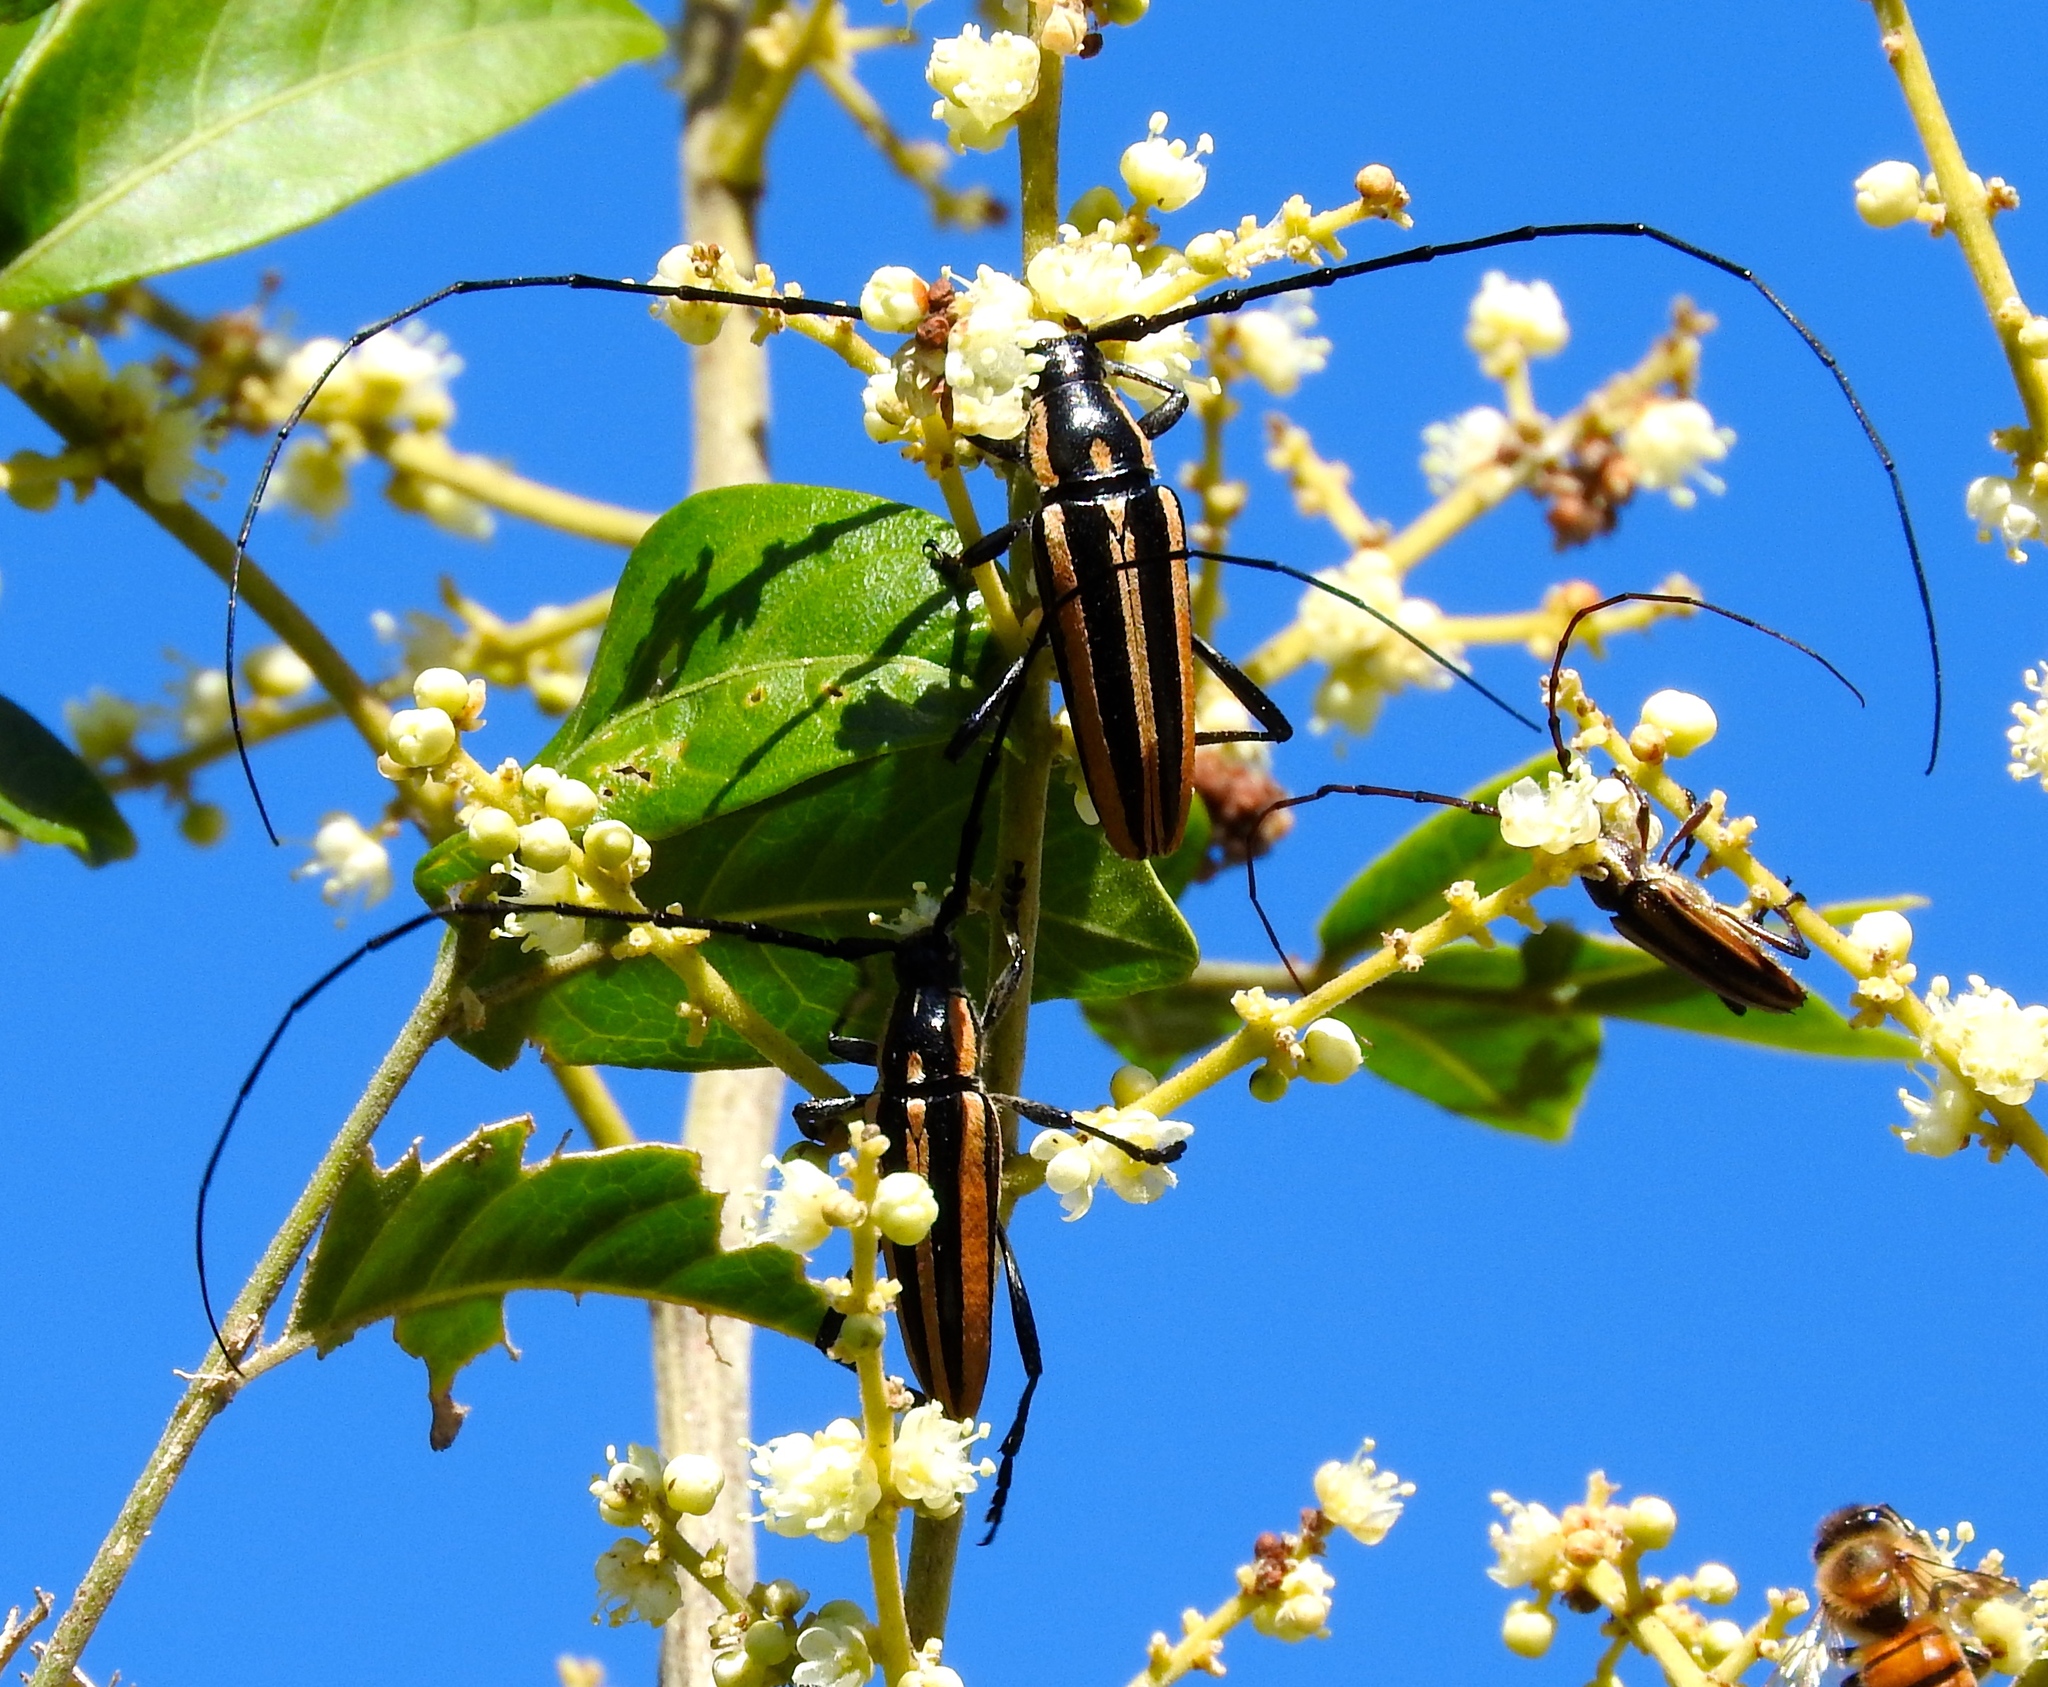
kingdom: Animalia
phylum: Arthropoda
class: Insecta
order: Coleoptera
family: Cerambycidae
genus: Sphaenothecus
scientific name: Sphaenothecus trilineatus
